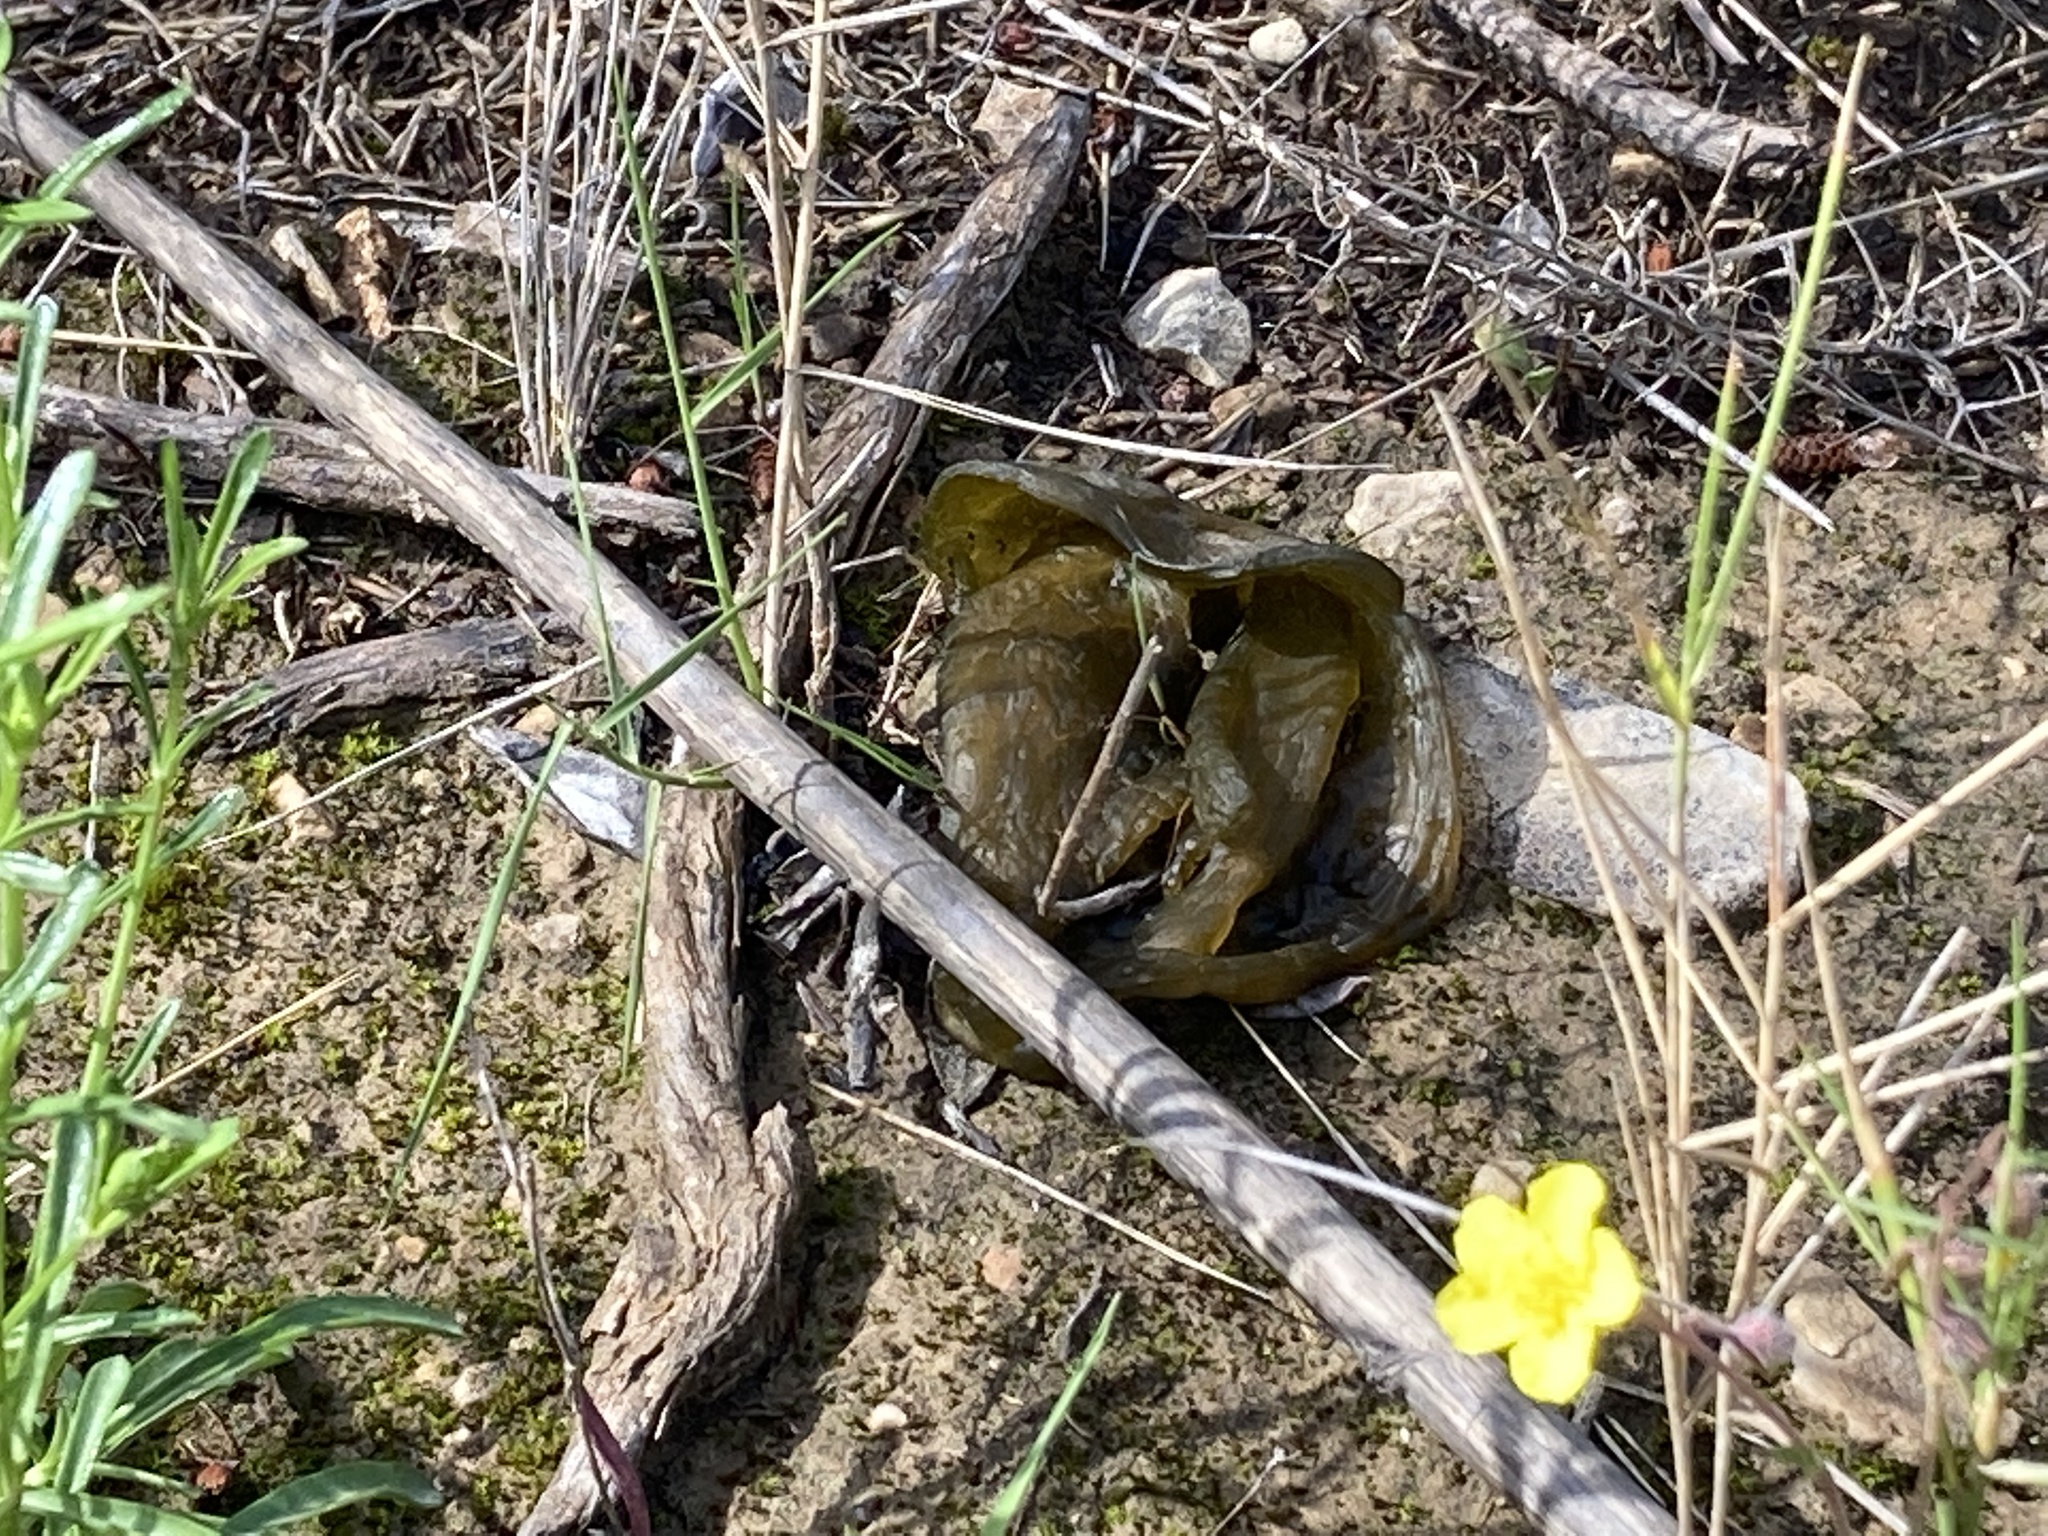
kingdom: Bacteria
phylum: Cyanobacteria
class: Cyanobacteriia
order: Cyanobacteriales
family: Nostocaceae
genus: Nostoc
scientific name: Nostoc commune
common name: Star jelly
